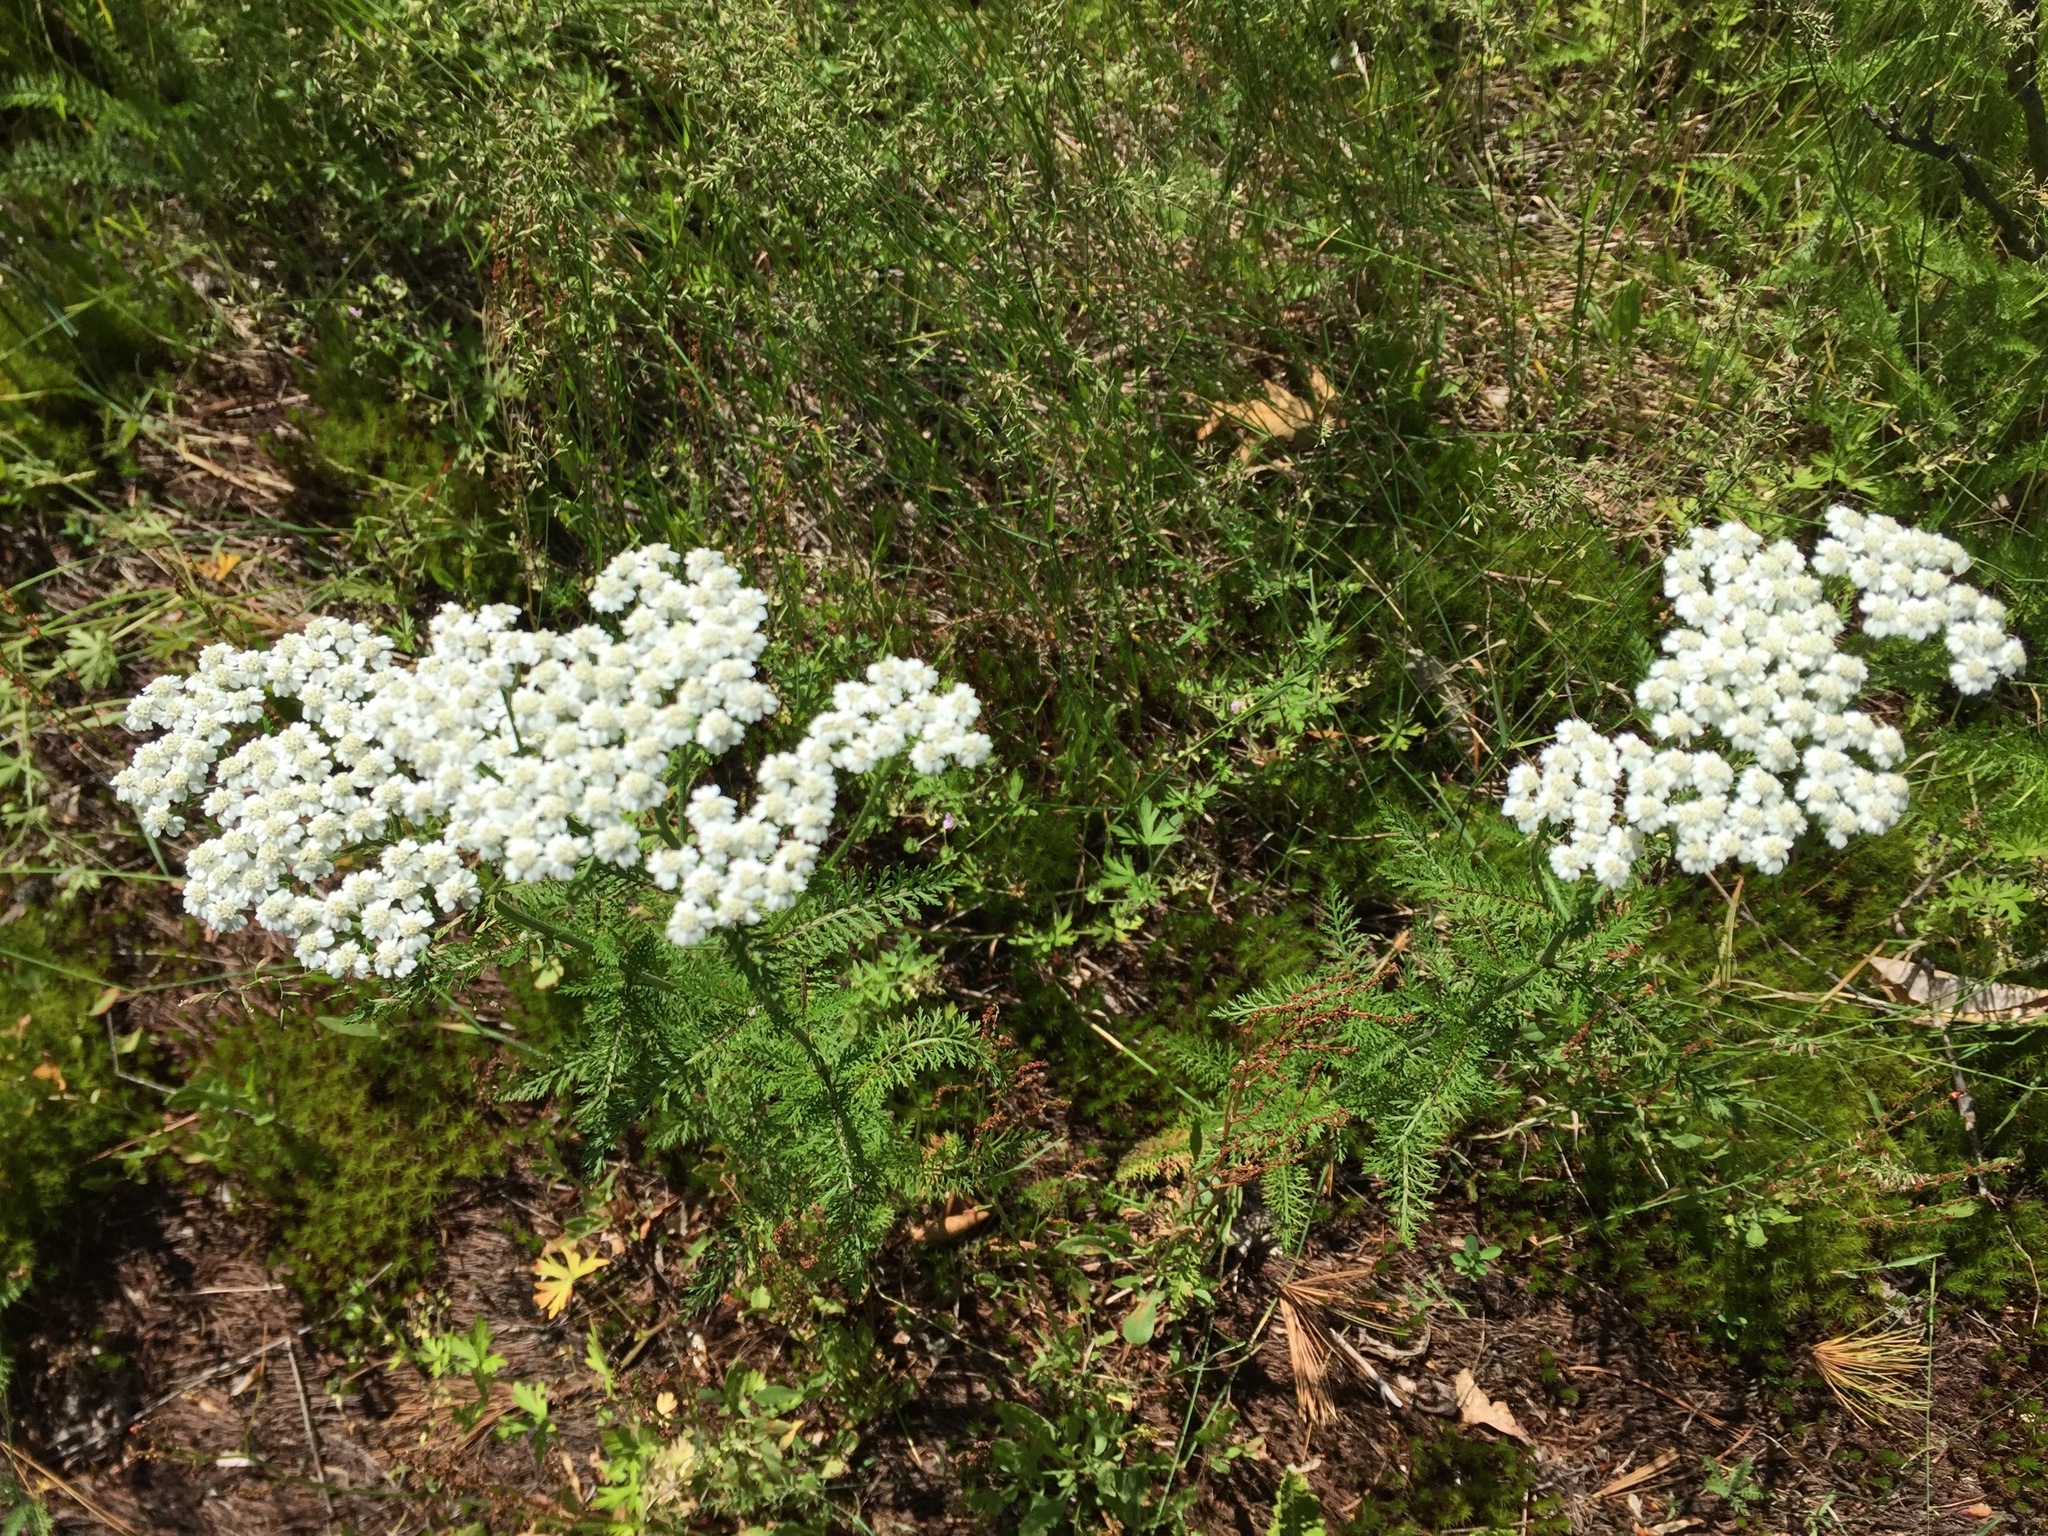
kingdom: Plantae
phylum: Tracheophyta
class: Magnoliopsida
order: Asterales
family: Asteraceae
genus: Achillea
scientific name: Achillea millefolium
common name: Yarrow
